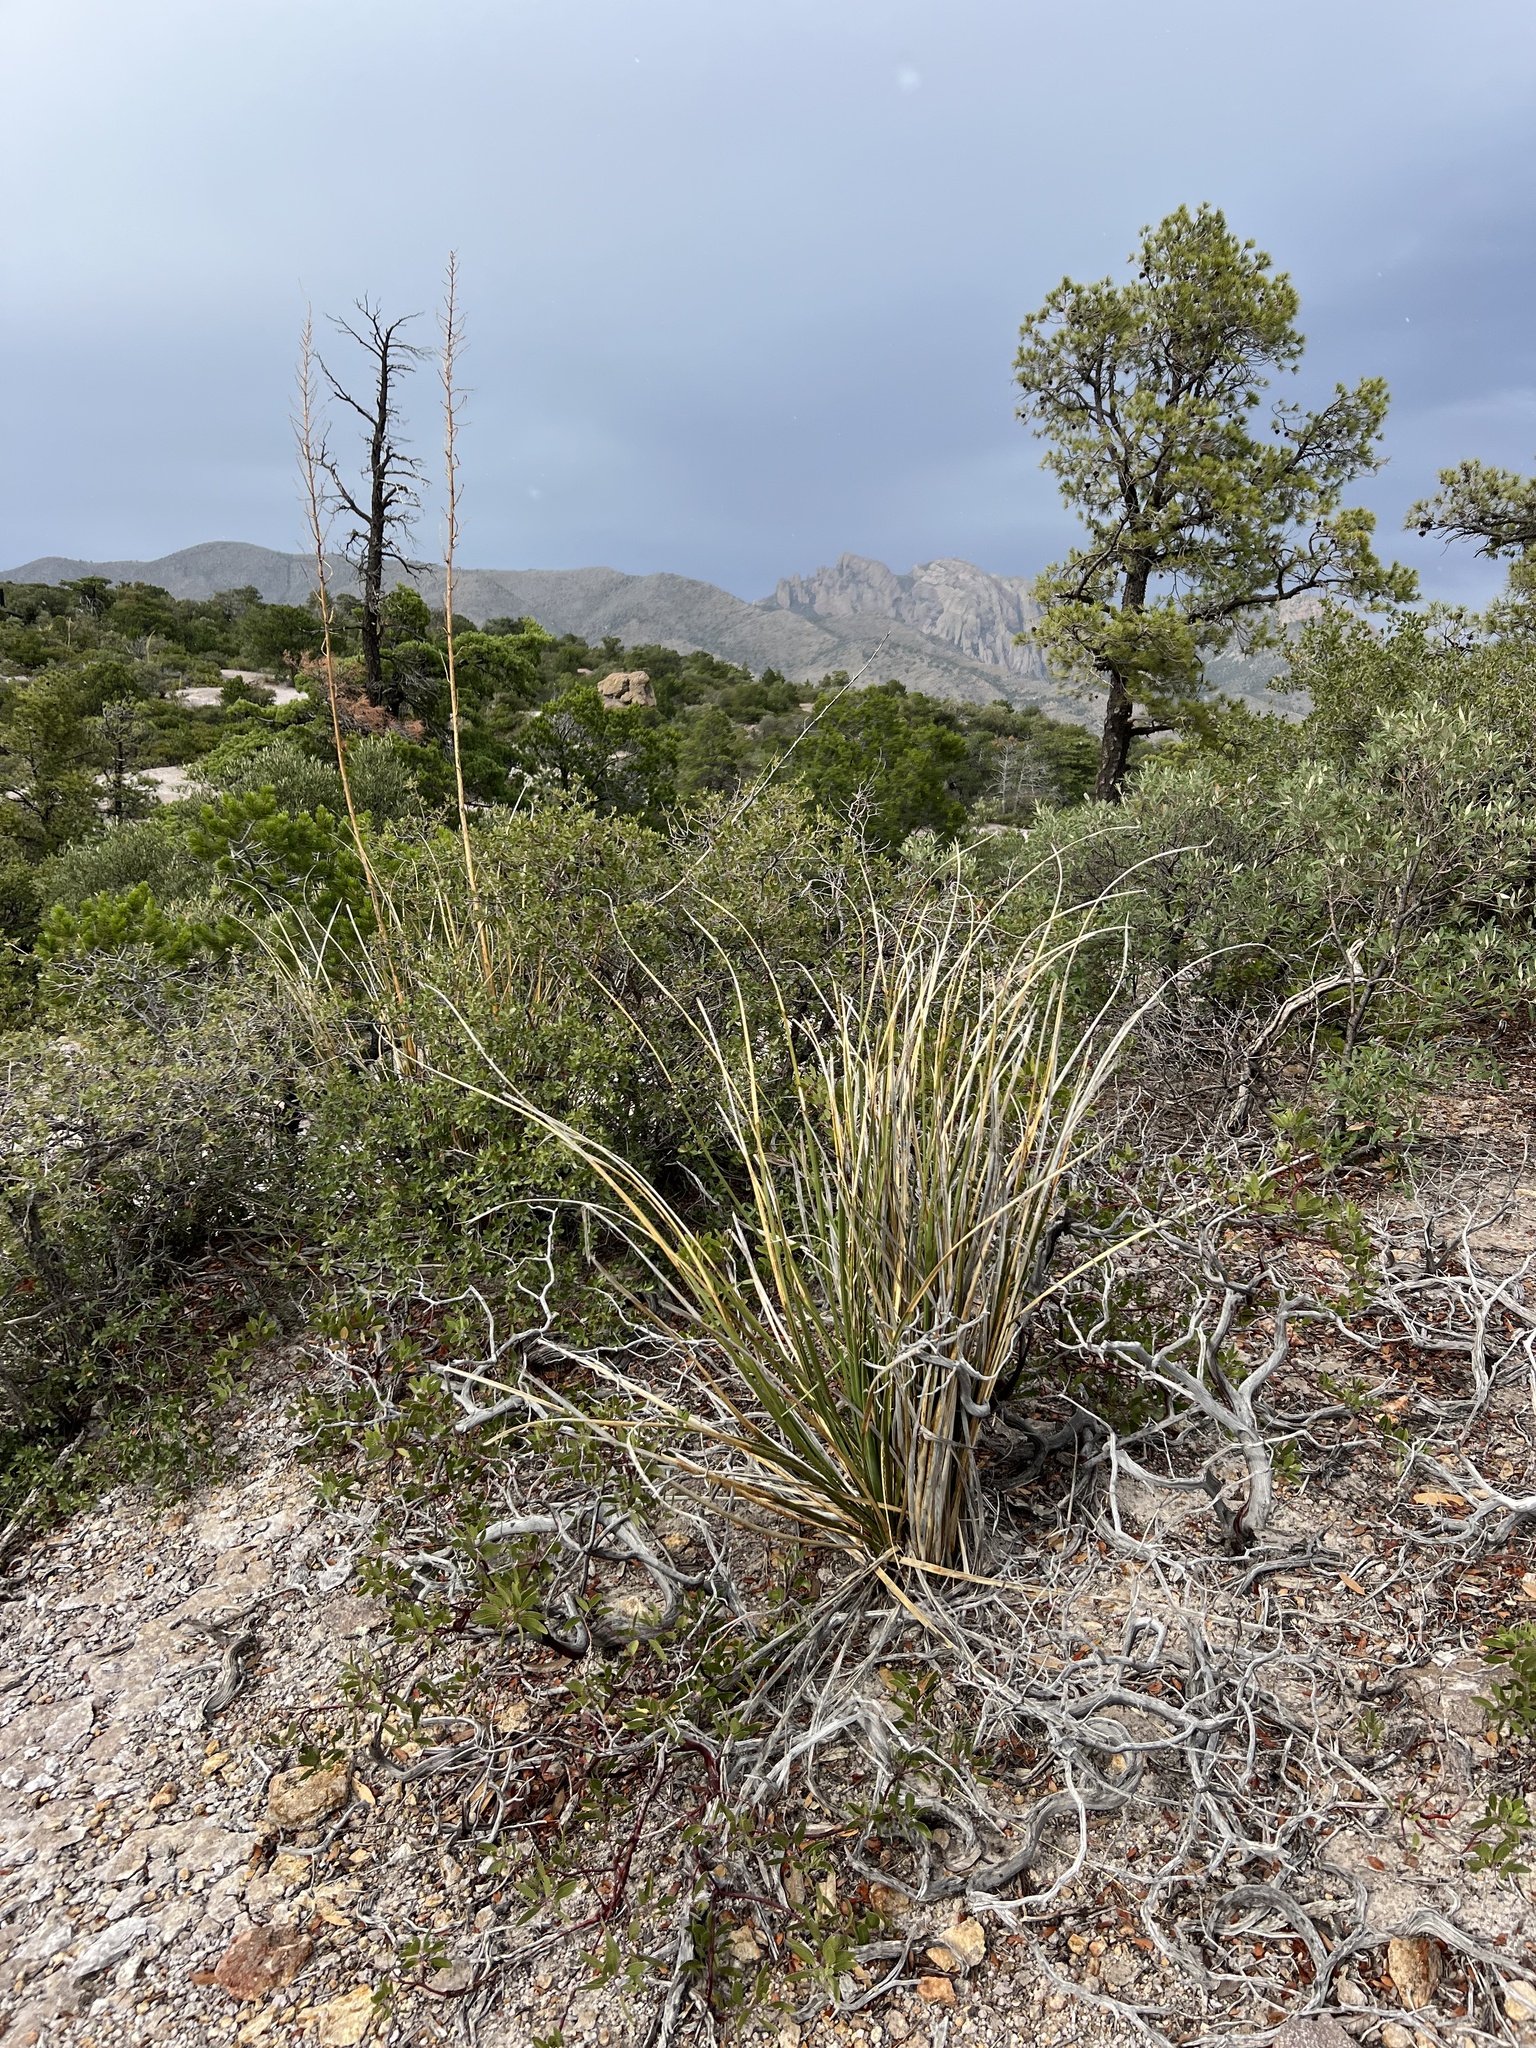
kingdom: Plantae
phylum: Tracheophyta
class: Liliopsida
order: Asparagales
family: Asparagaceae
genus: Nolina
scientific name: Nolina microcarpa
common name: Bear-grass
